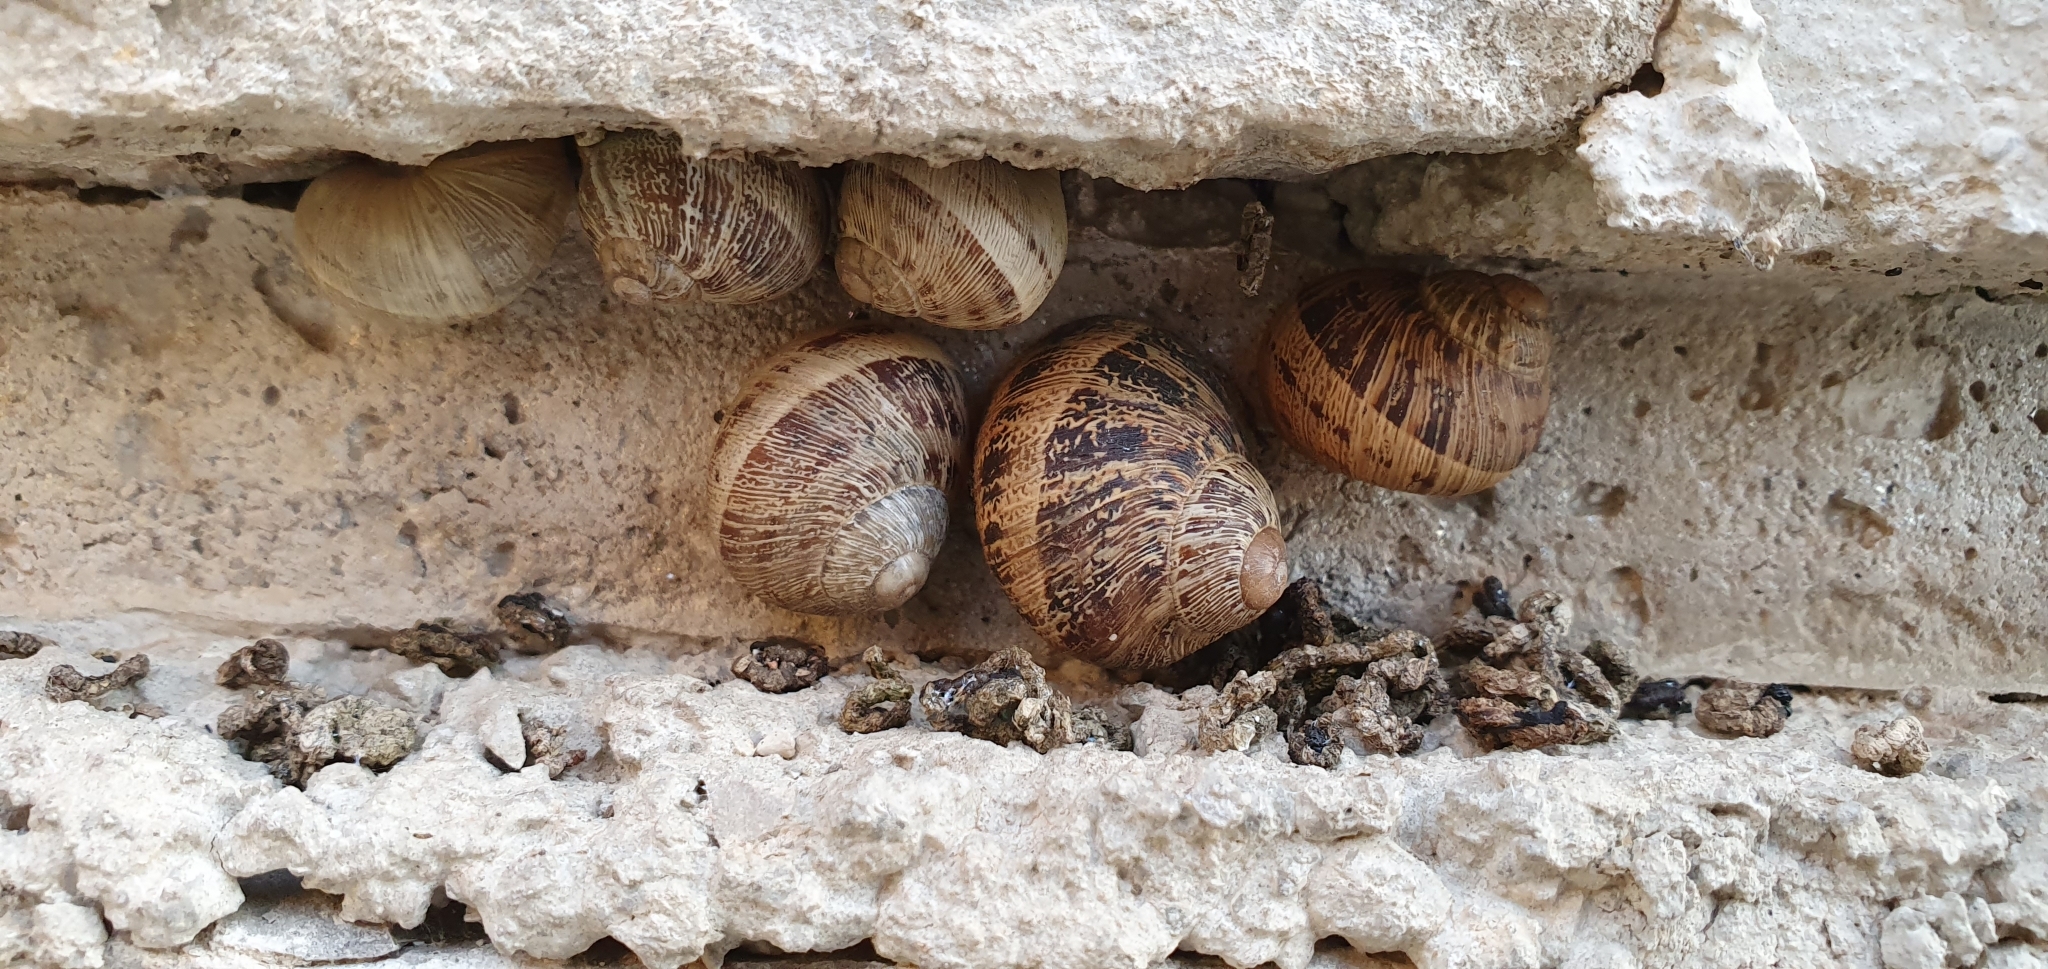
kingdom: Animalia
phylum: Mollusca
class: Gastropoda
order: Stylommatophora
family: Helicidae
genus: Cornu
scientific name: Cornu aspersum
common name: Brown garden snail
